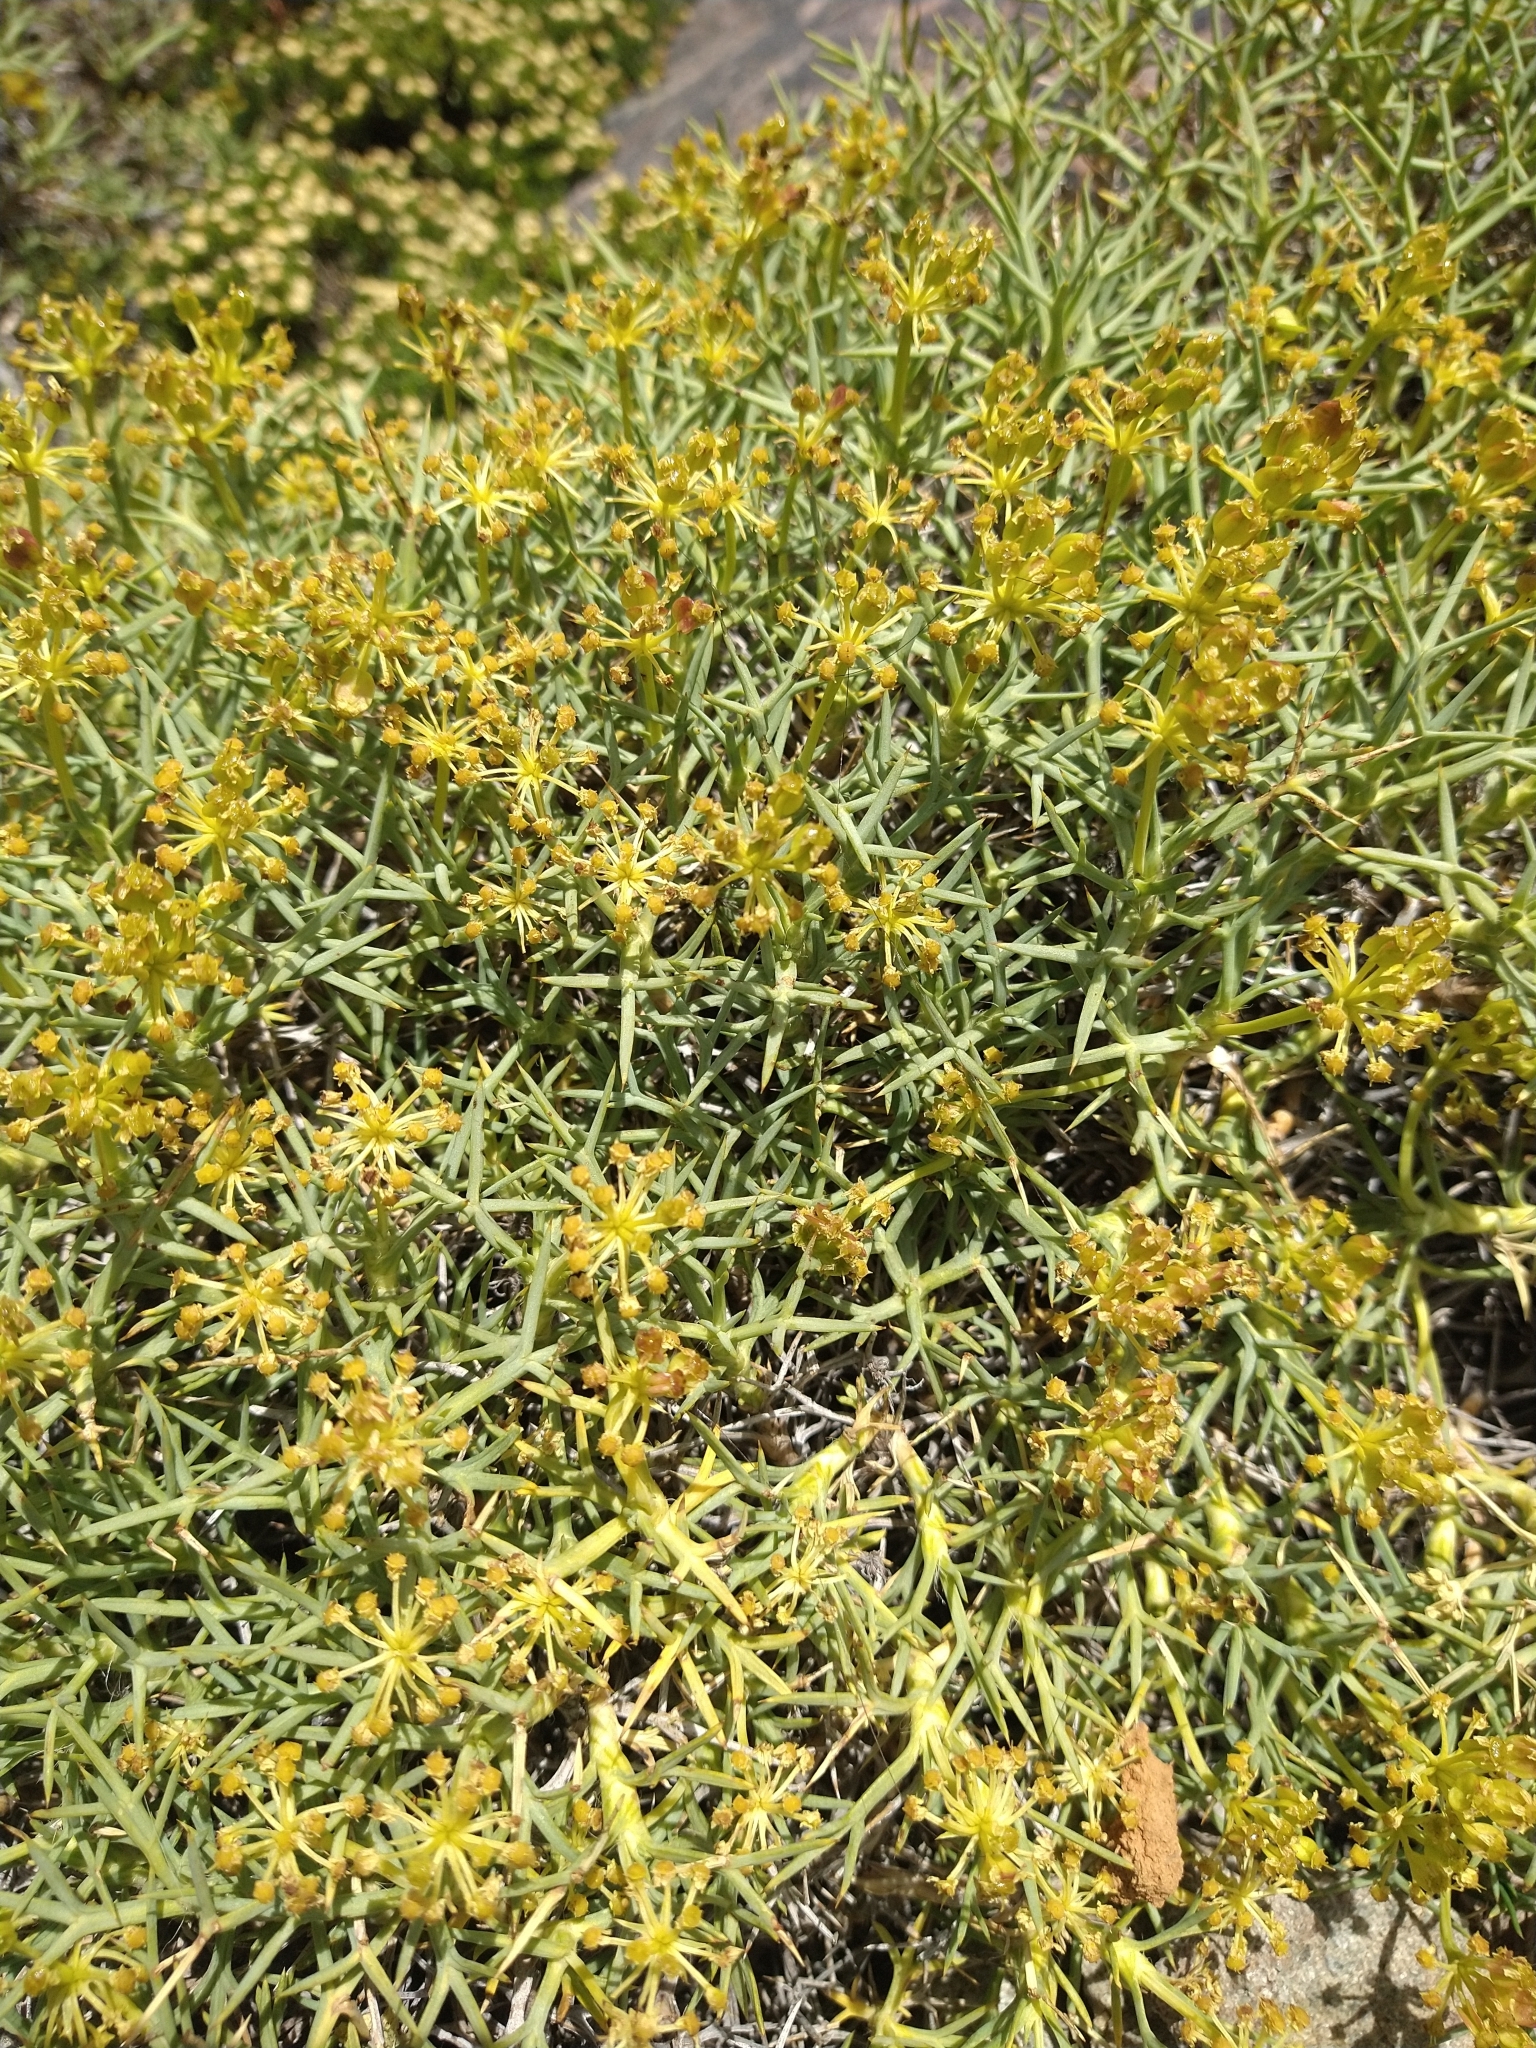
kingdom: Plantae
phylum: Tracheophyta
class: Magnoliopsida
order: Apiales
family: Apiaceae
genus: Azorella
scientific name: Azorella prolifera
